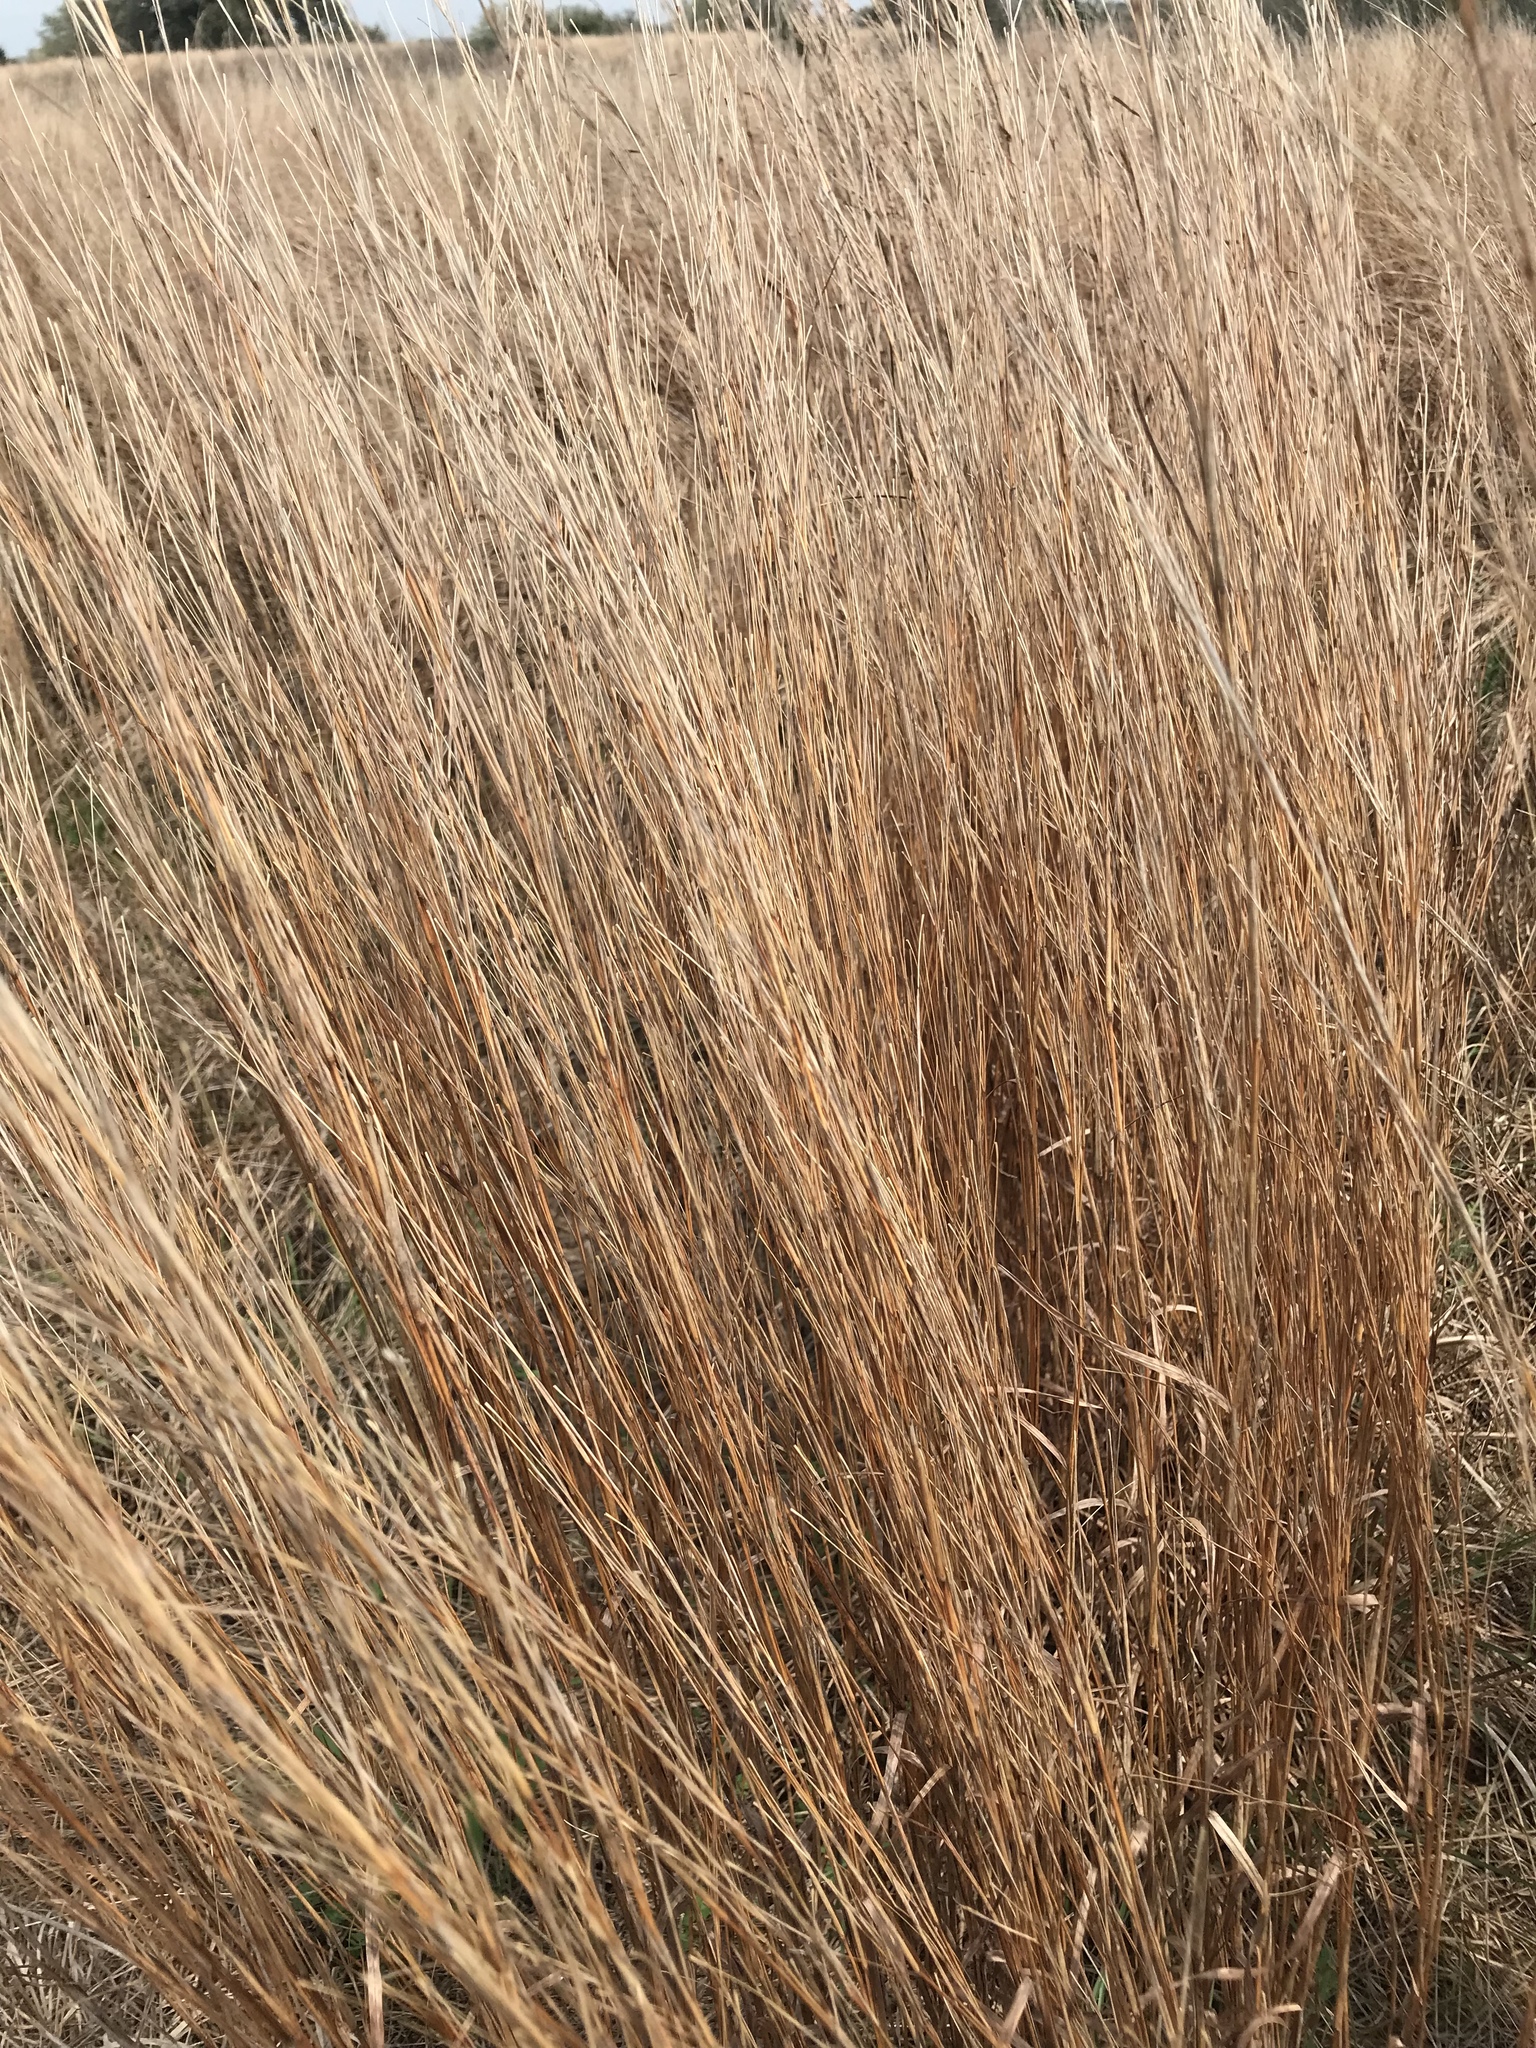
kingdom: Plantae
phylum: Tracheophyta
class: Liliopsida
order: Poales
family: Poaceae
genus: Schizachyrium
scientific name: Schizachyrium scoparium
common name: Little bluestem
